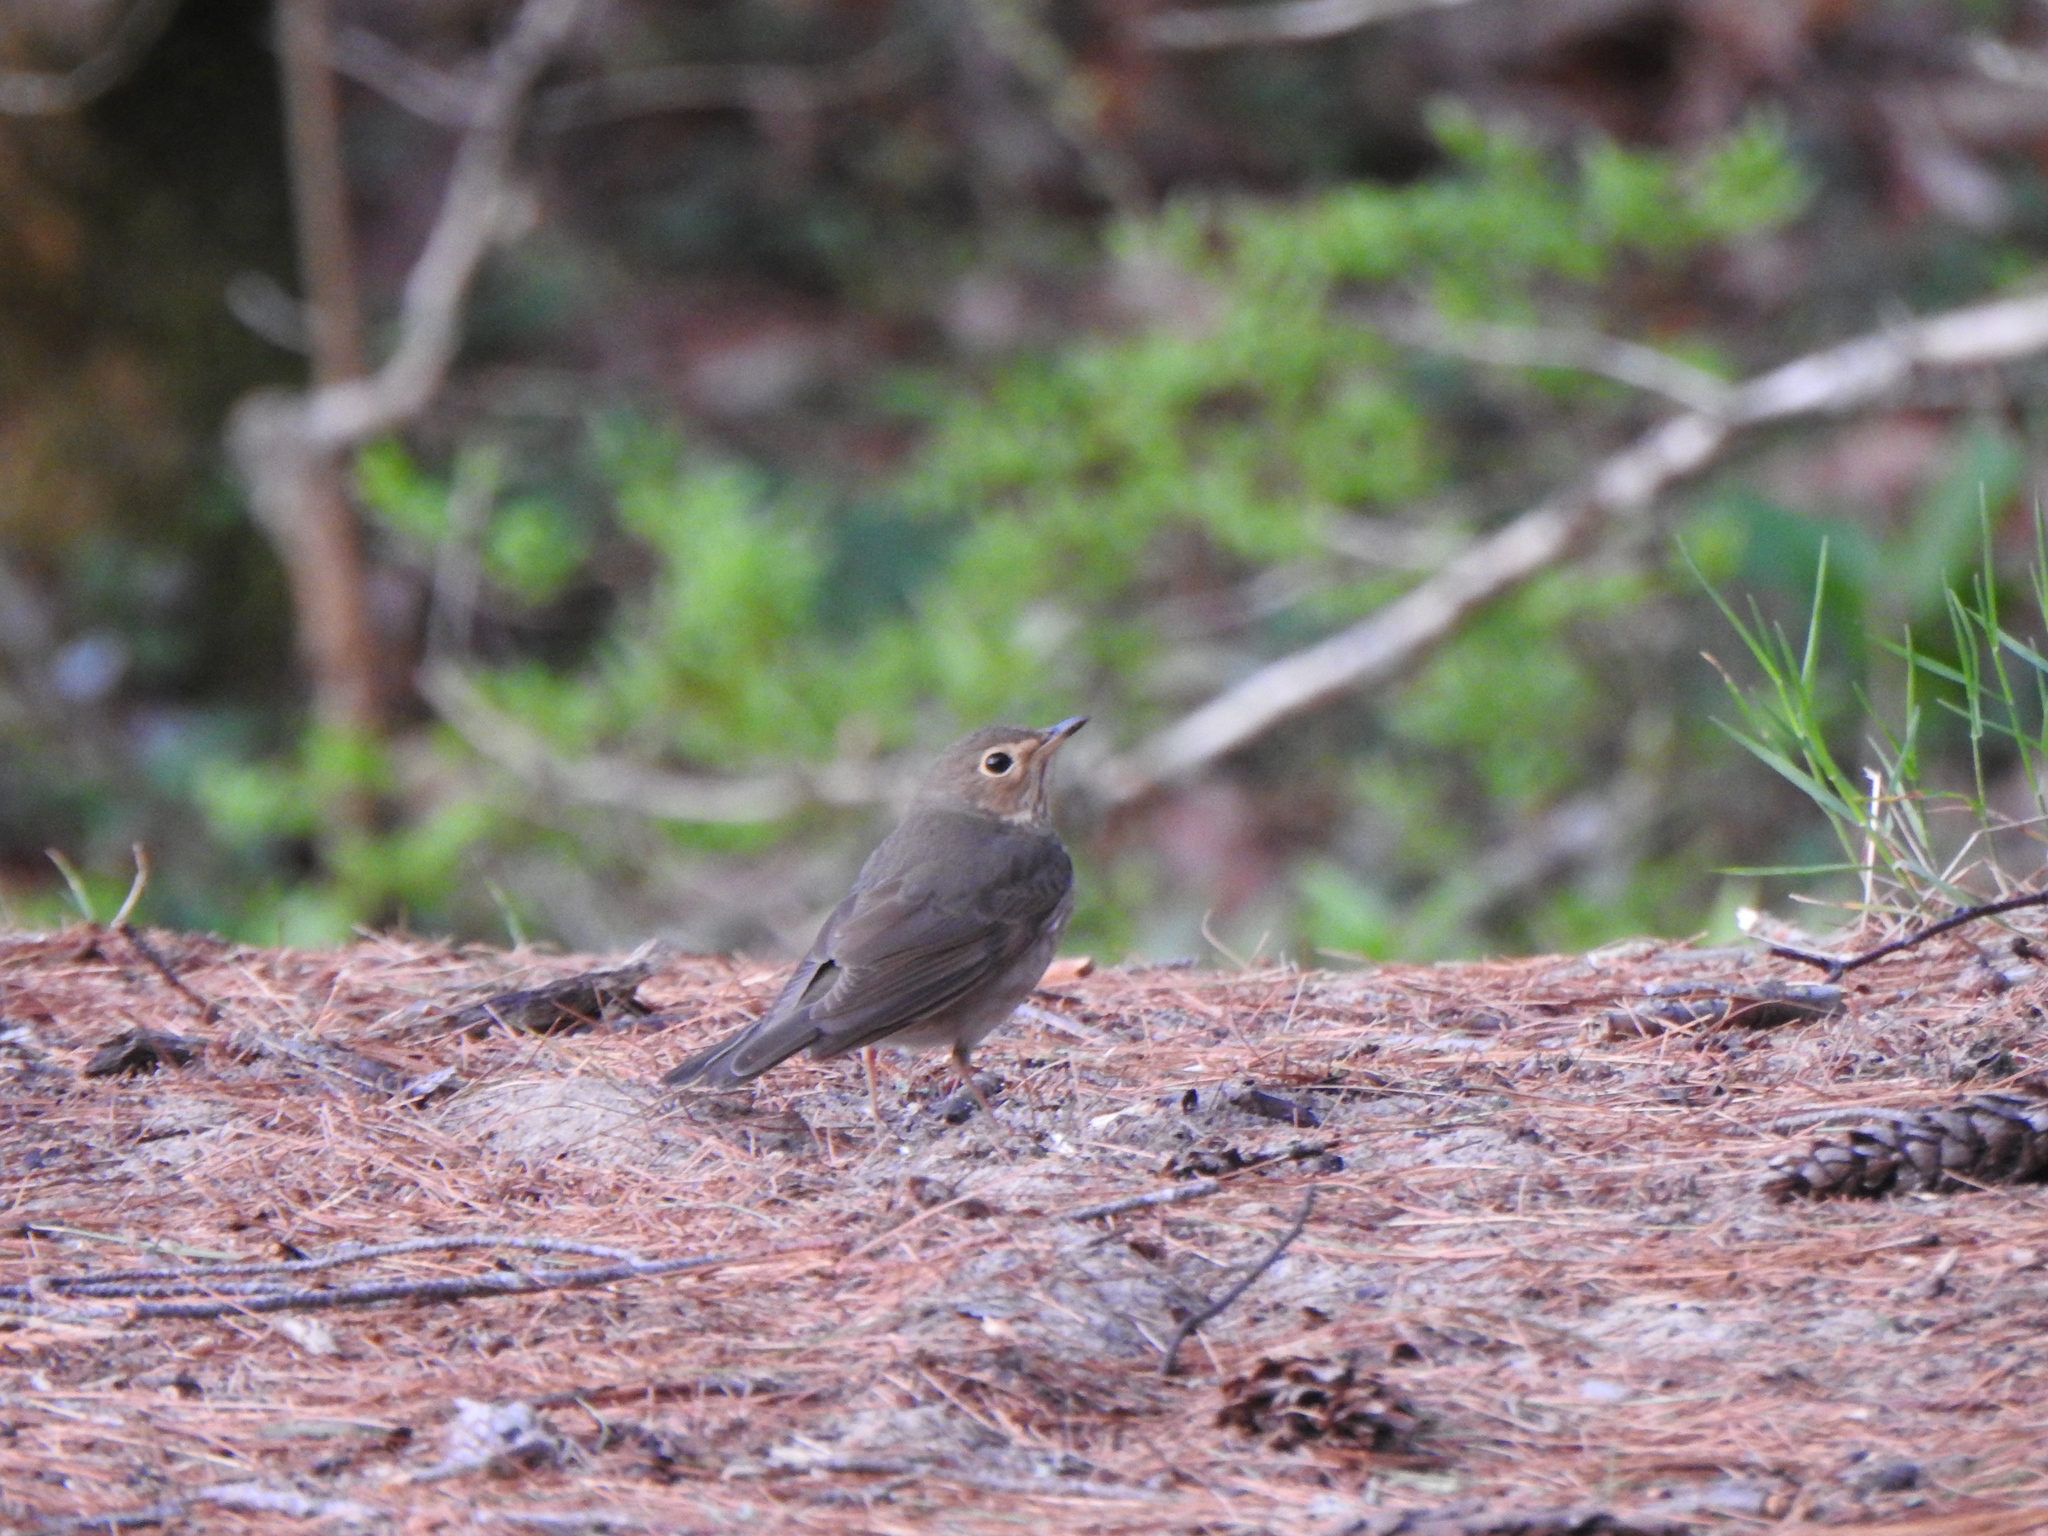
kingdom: Animalia
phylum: Chordata
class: Aves
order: Passeriformes
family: Turdidae
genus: Catharus
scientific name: Catharus ustulatus
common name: Swainson's thrush
